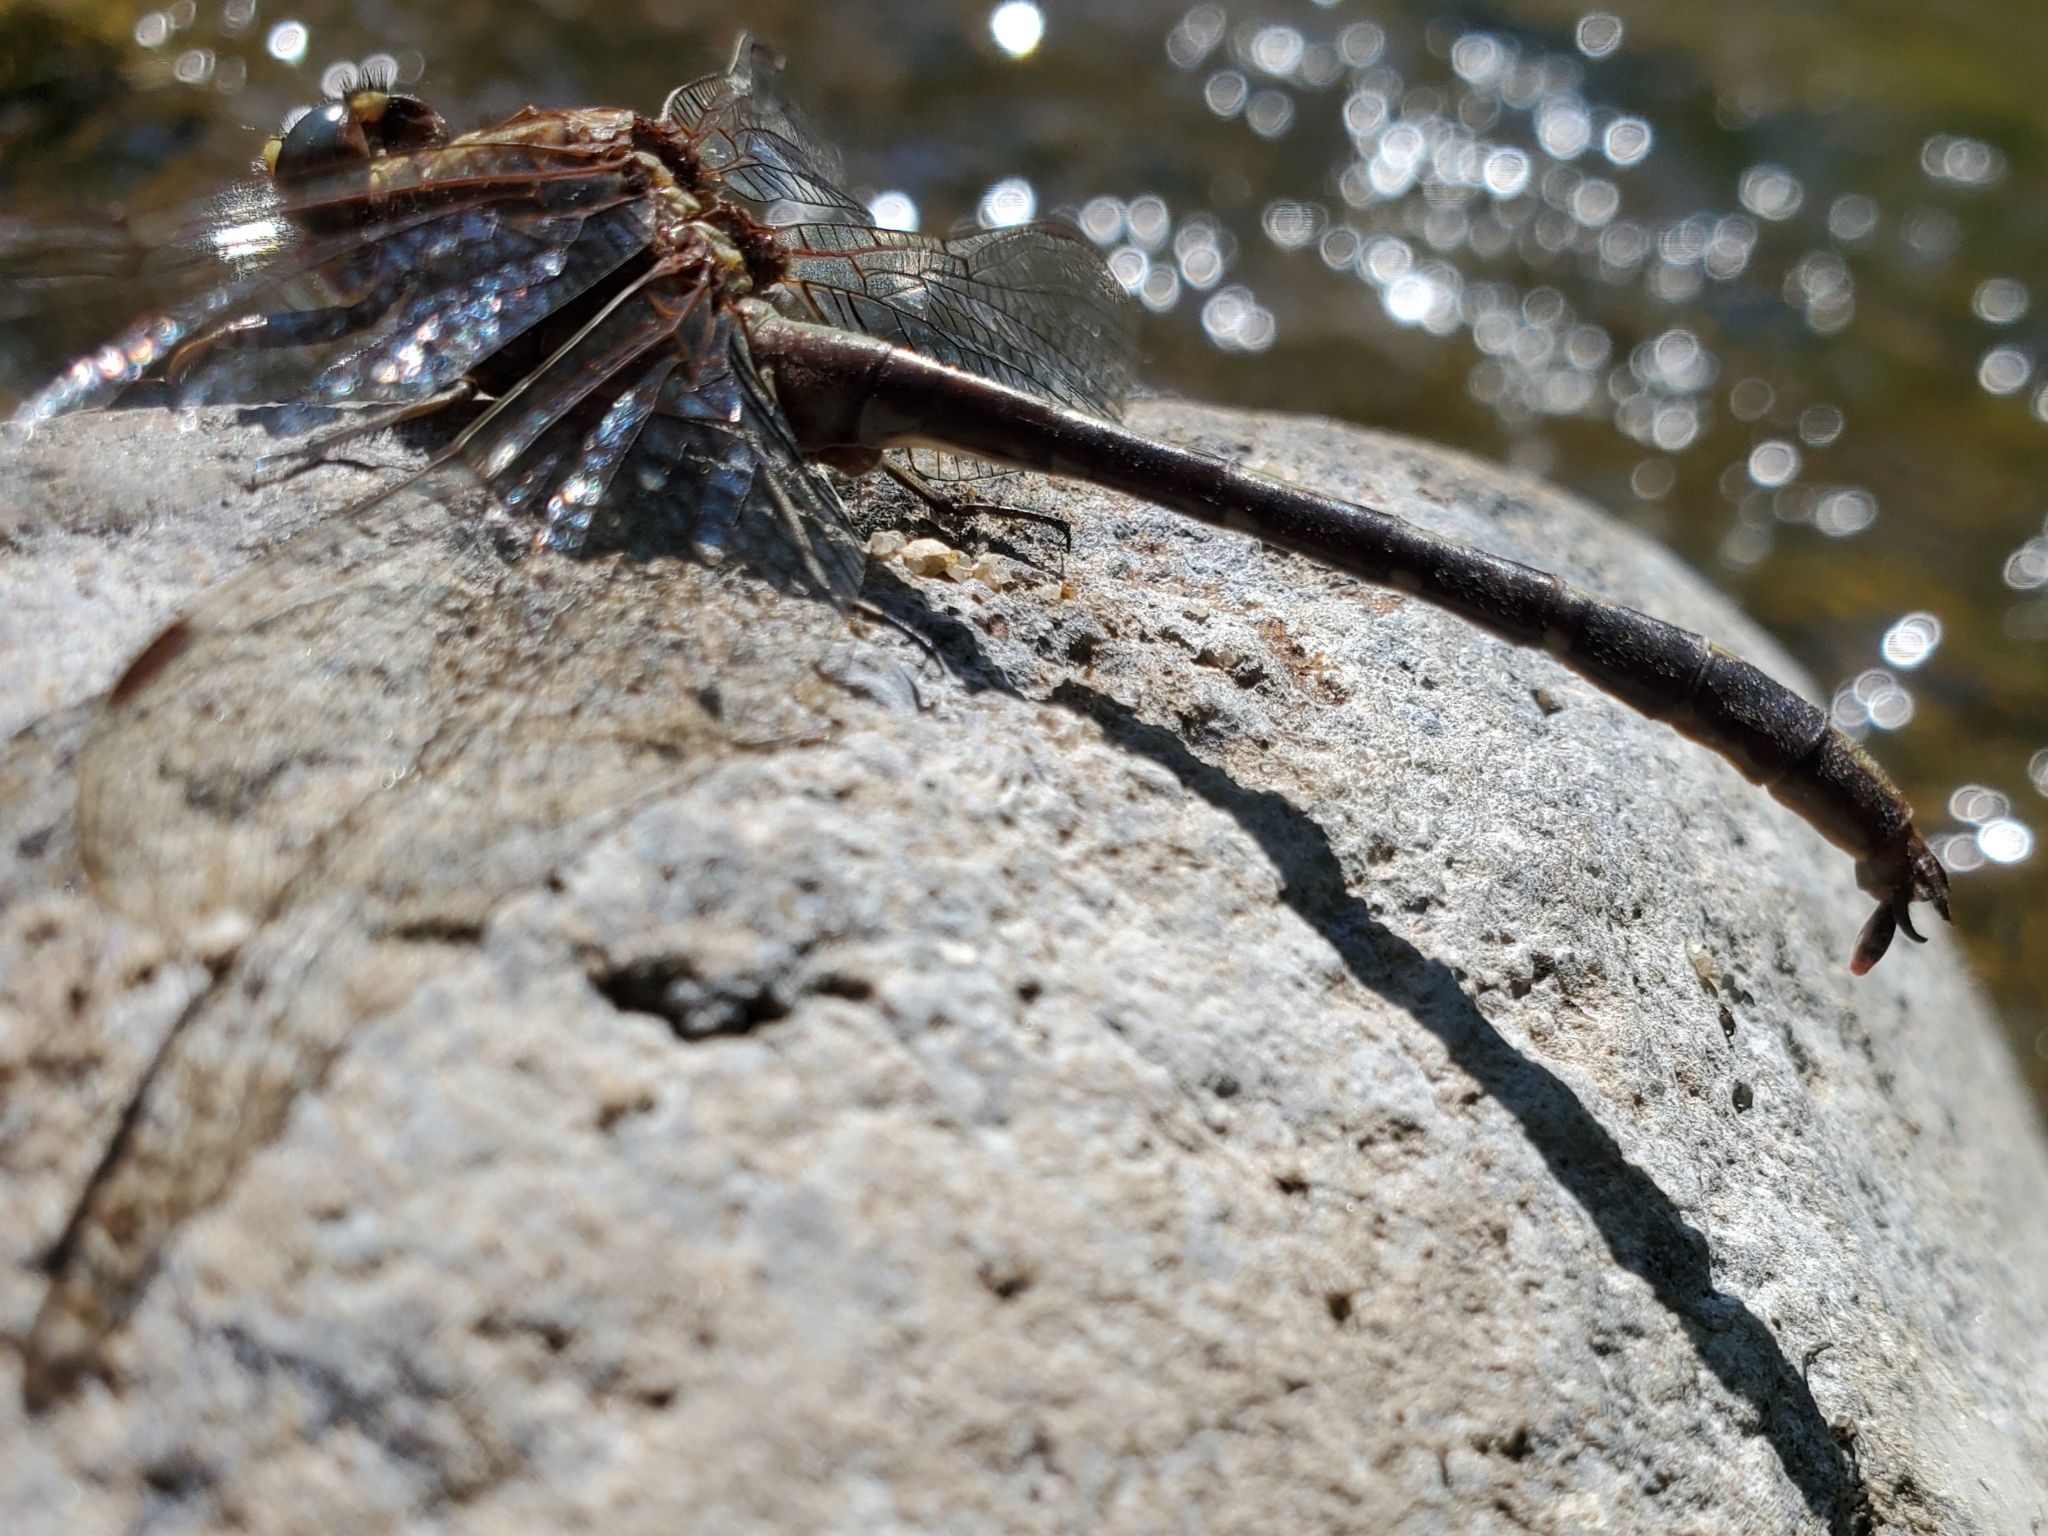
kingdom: Animalia
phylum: Arthropoda
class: Insecta
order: Odonata
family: Gomphidae
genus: Phanogomphus
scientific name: Phanogomphus lividus
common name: Ashy clubtail
